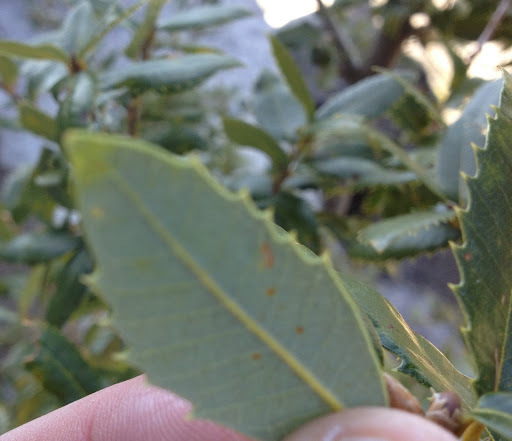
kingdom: Plantae
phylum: Tracheophyta
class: Magnoliopsida
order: Fagales
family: Fagaceae
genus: Quercus
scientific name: Quercus chrysolepis
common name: Canyon live oak
